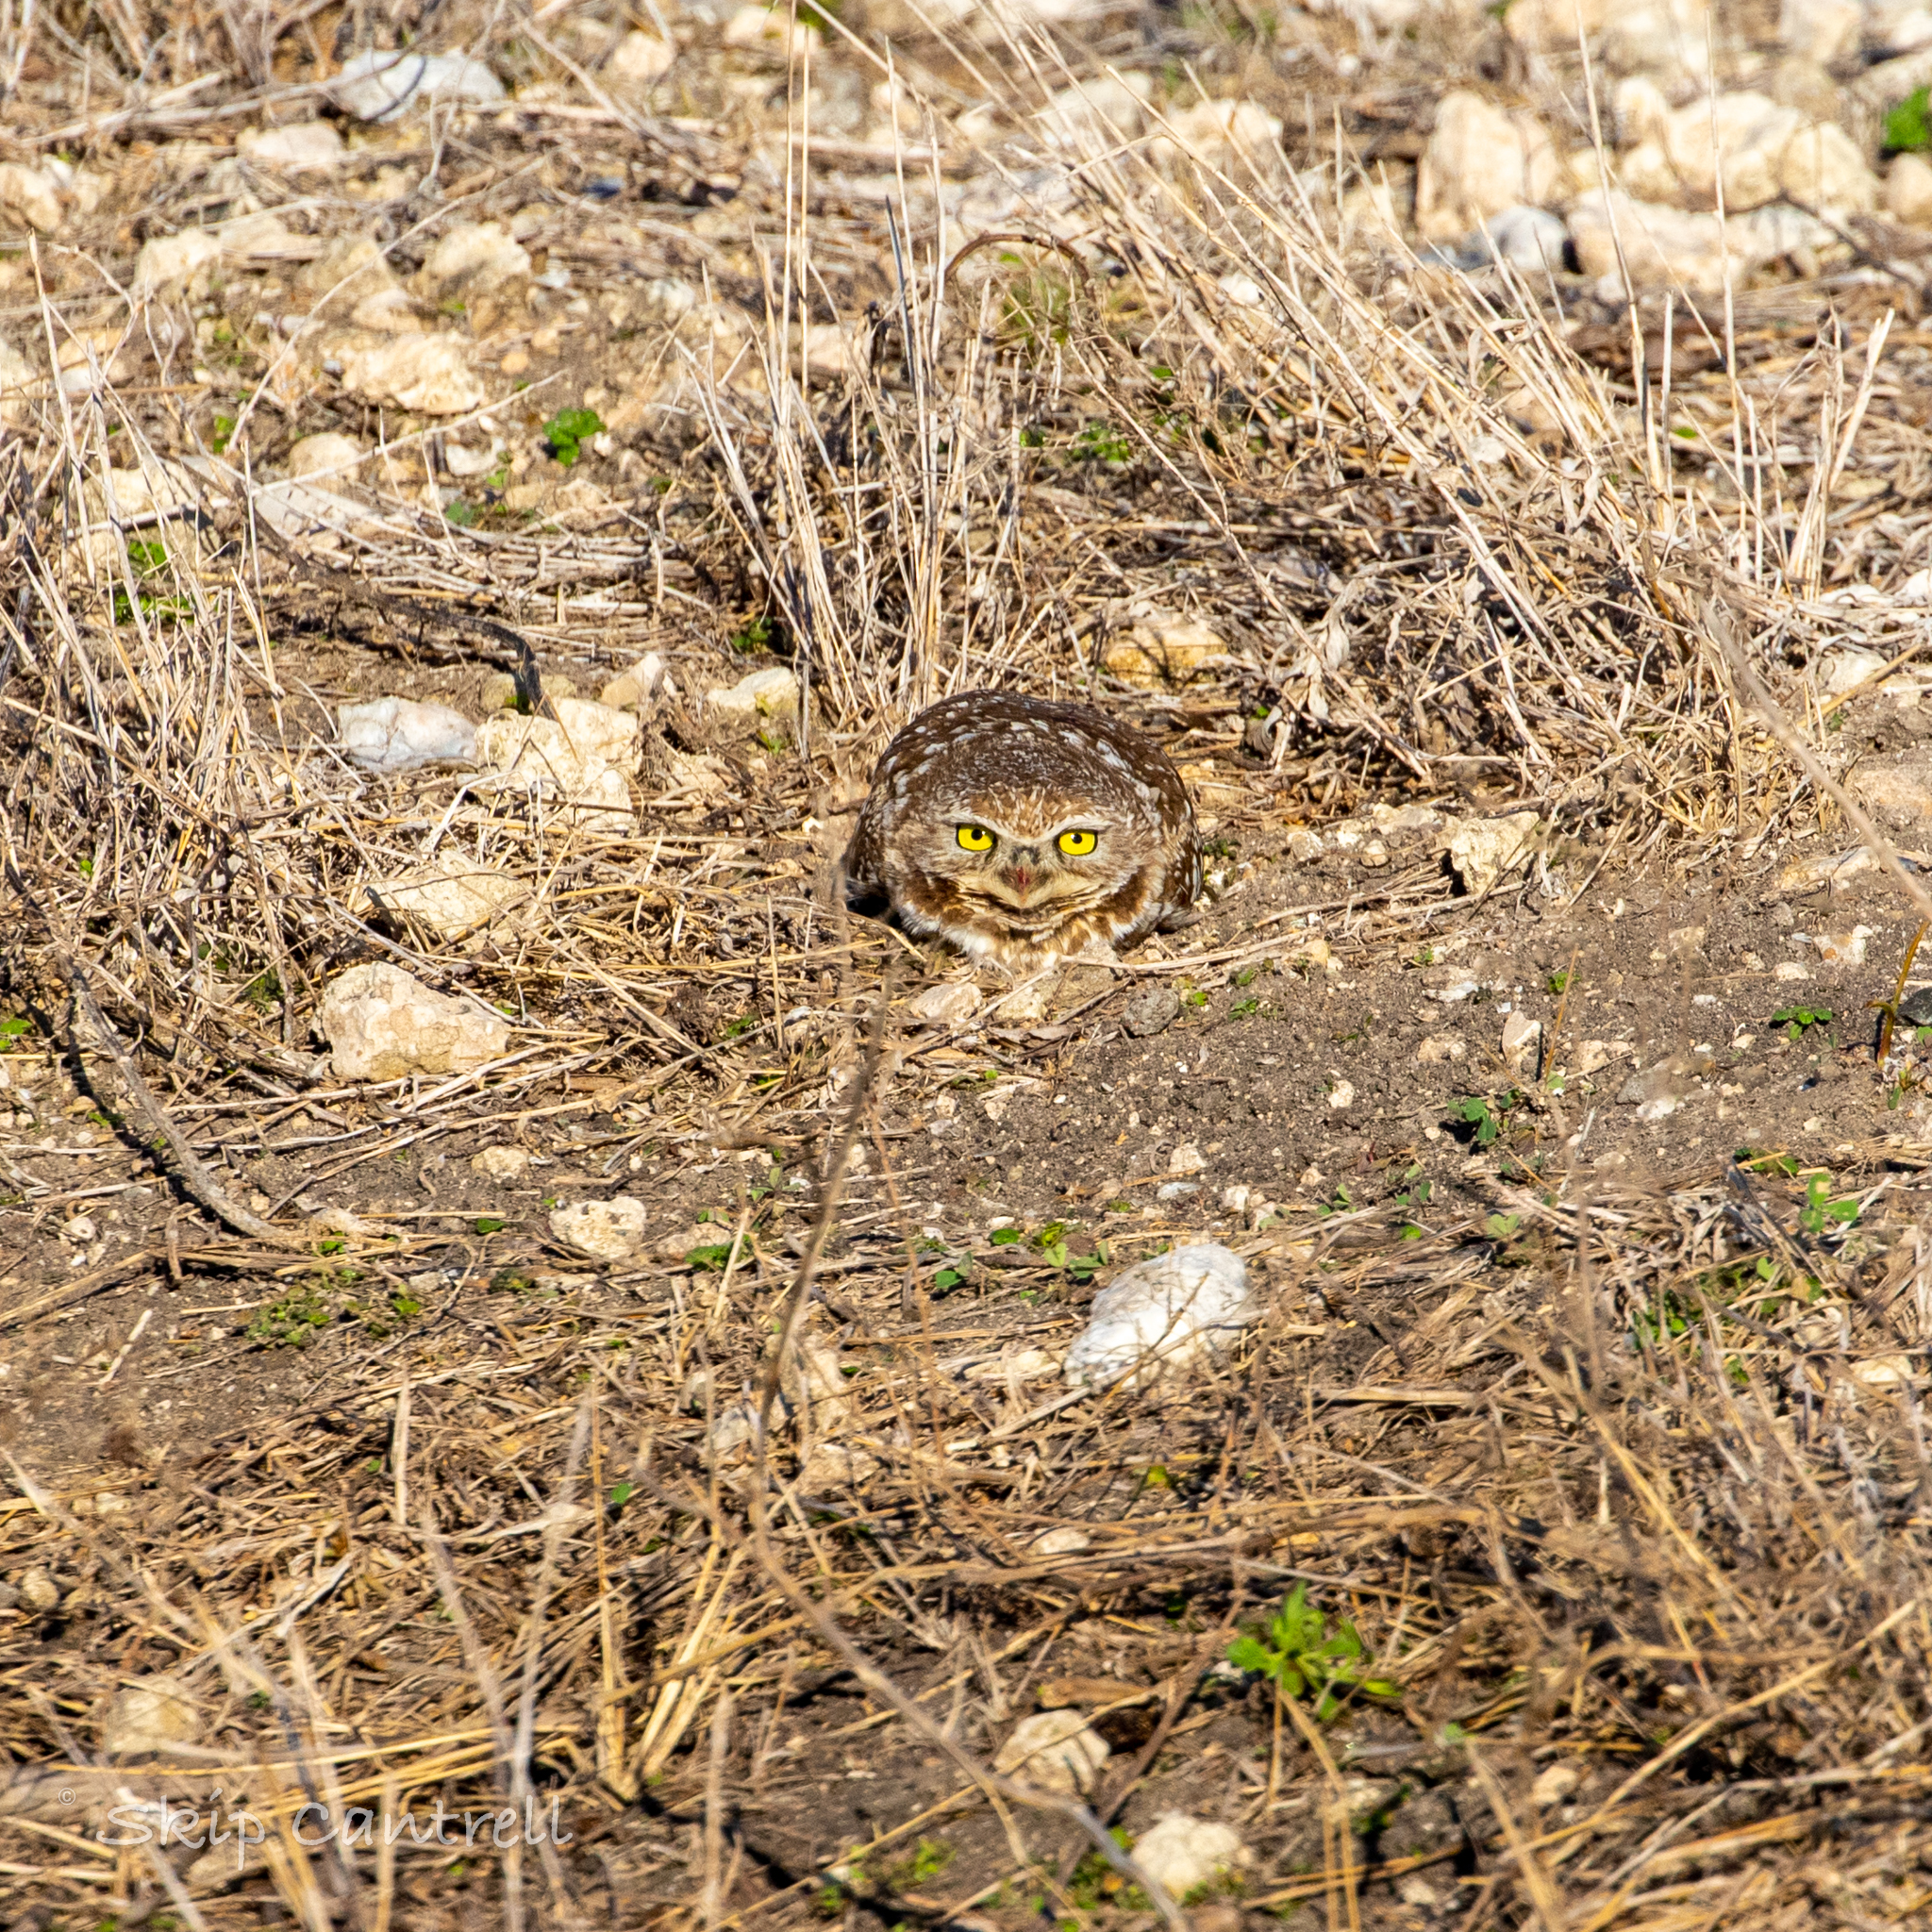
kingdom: Animalia
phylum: Chordata
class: Aves
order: Strigiformes
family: Strigidae
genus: Athene
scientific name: Athene cunicularia
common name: Burrowing owl
